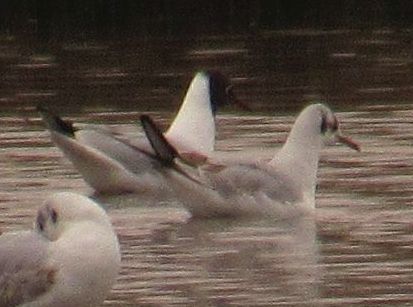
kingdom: Animalia
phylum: Chordata
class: Aves
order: Charadriiformes
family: Laridae
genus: Chroicocephalus
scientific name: Chroicocephalus ridibundus
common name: Black-headed gull
